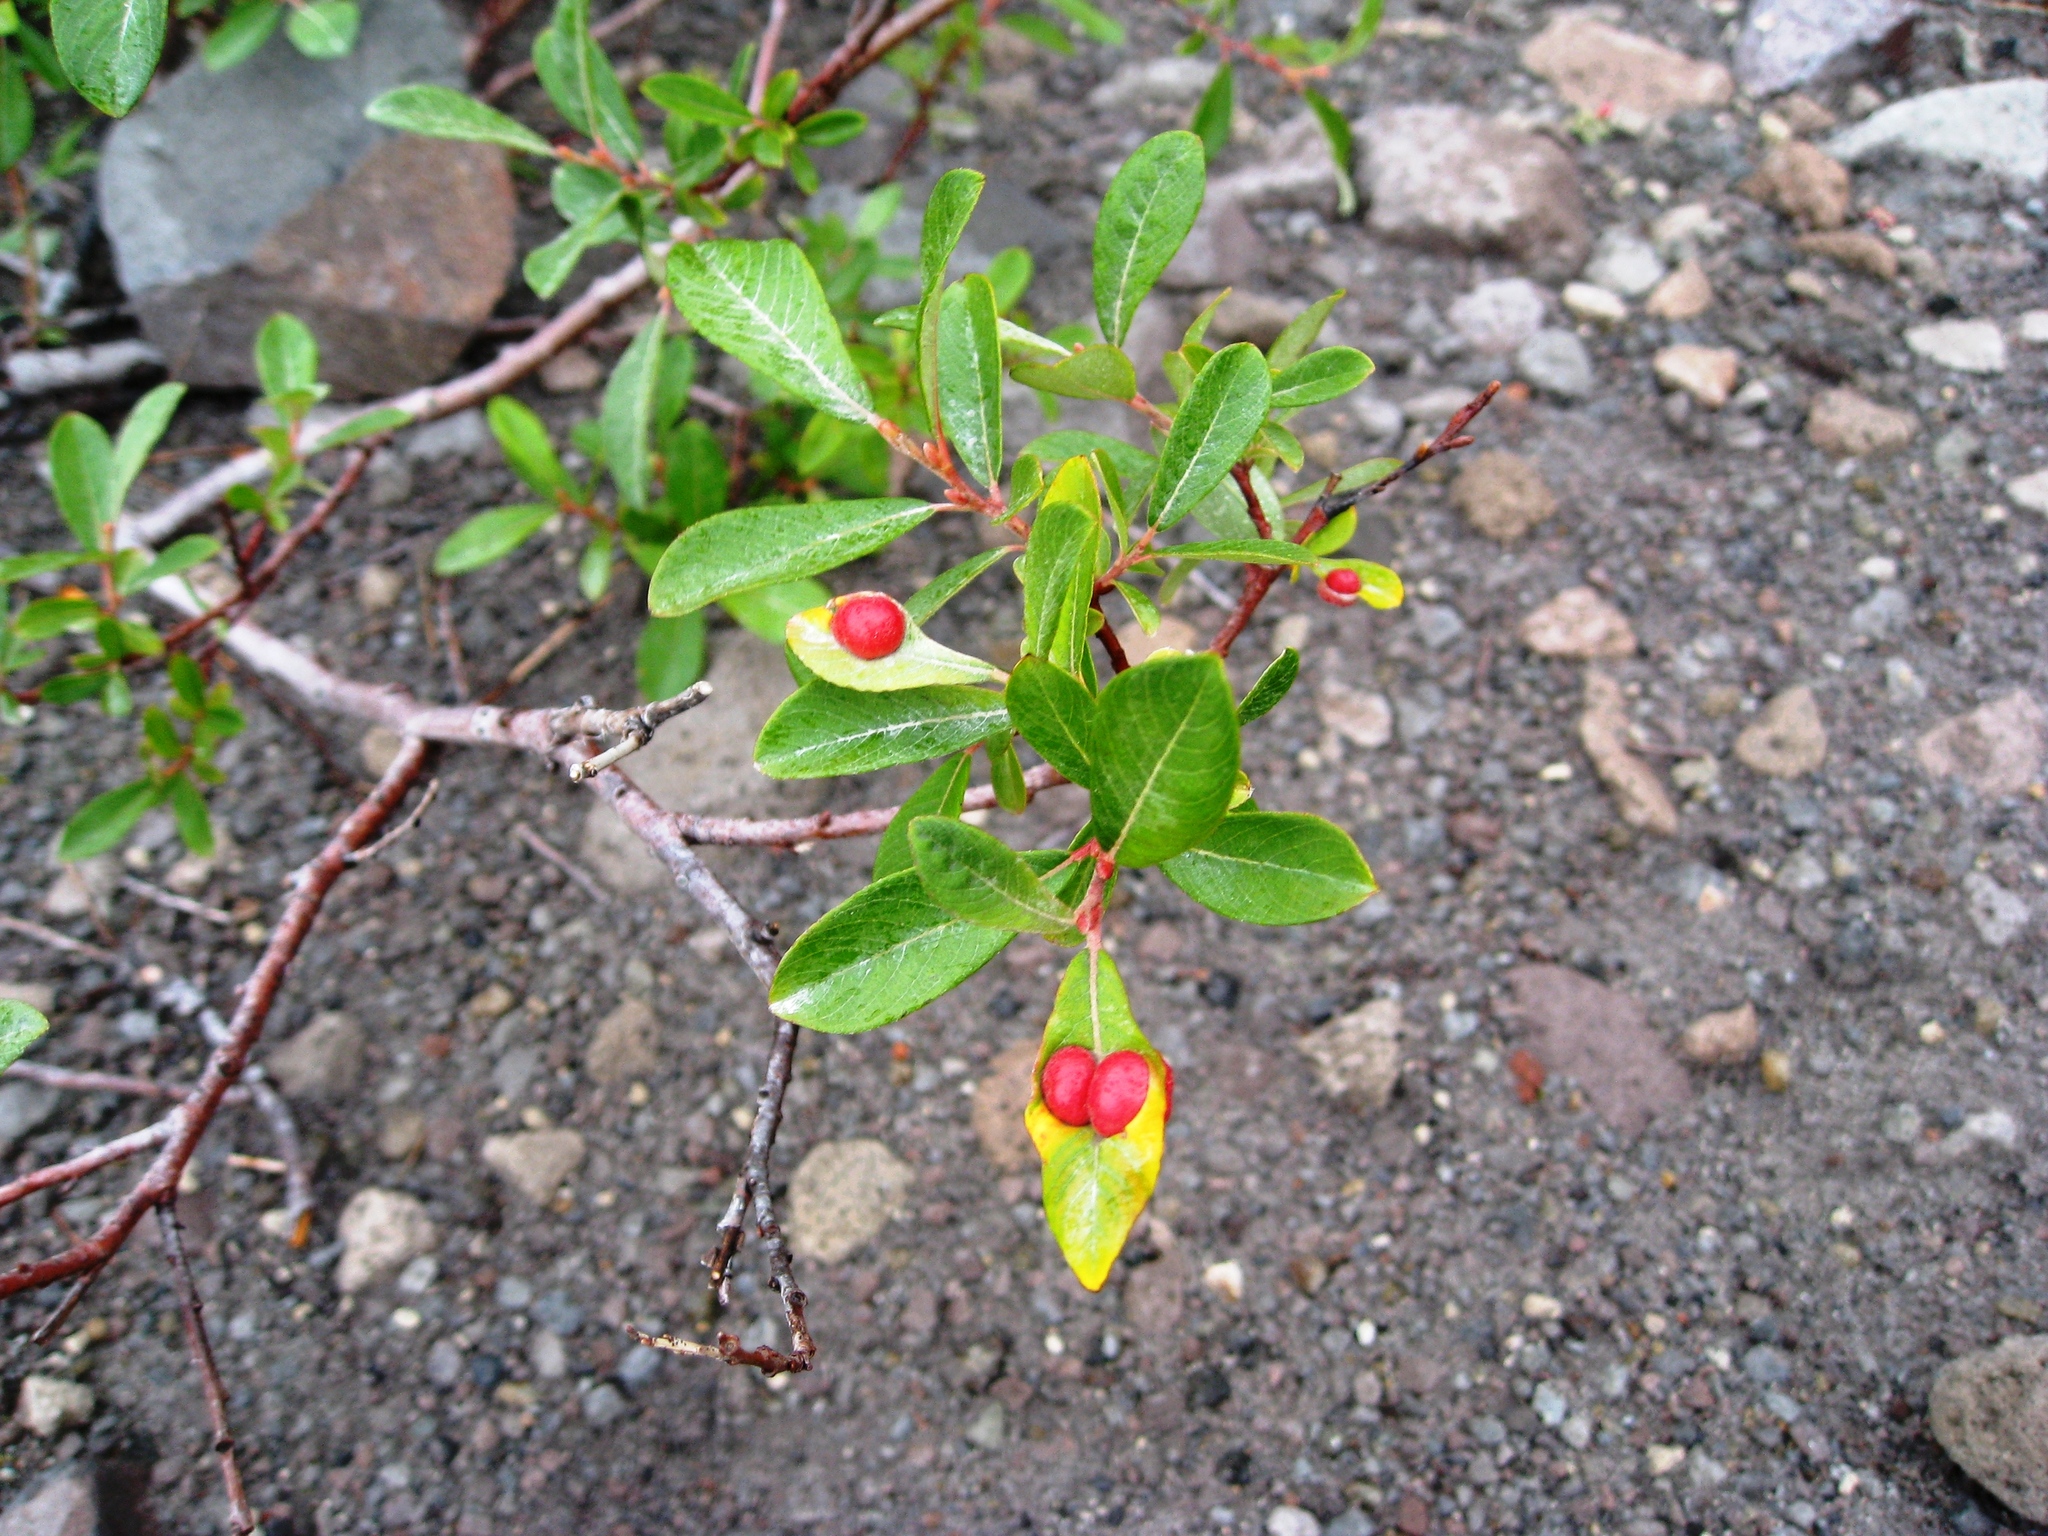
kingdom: Animalia
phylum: Arthropoda
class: Insecta
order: Hymenoptera
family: Tenthredinidae
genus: Euura
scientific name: Euura
